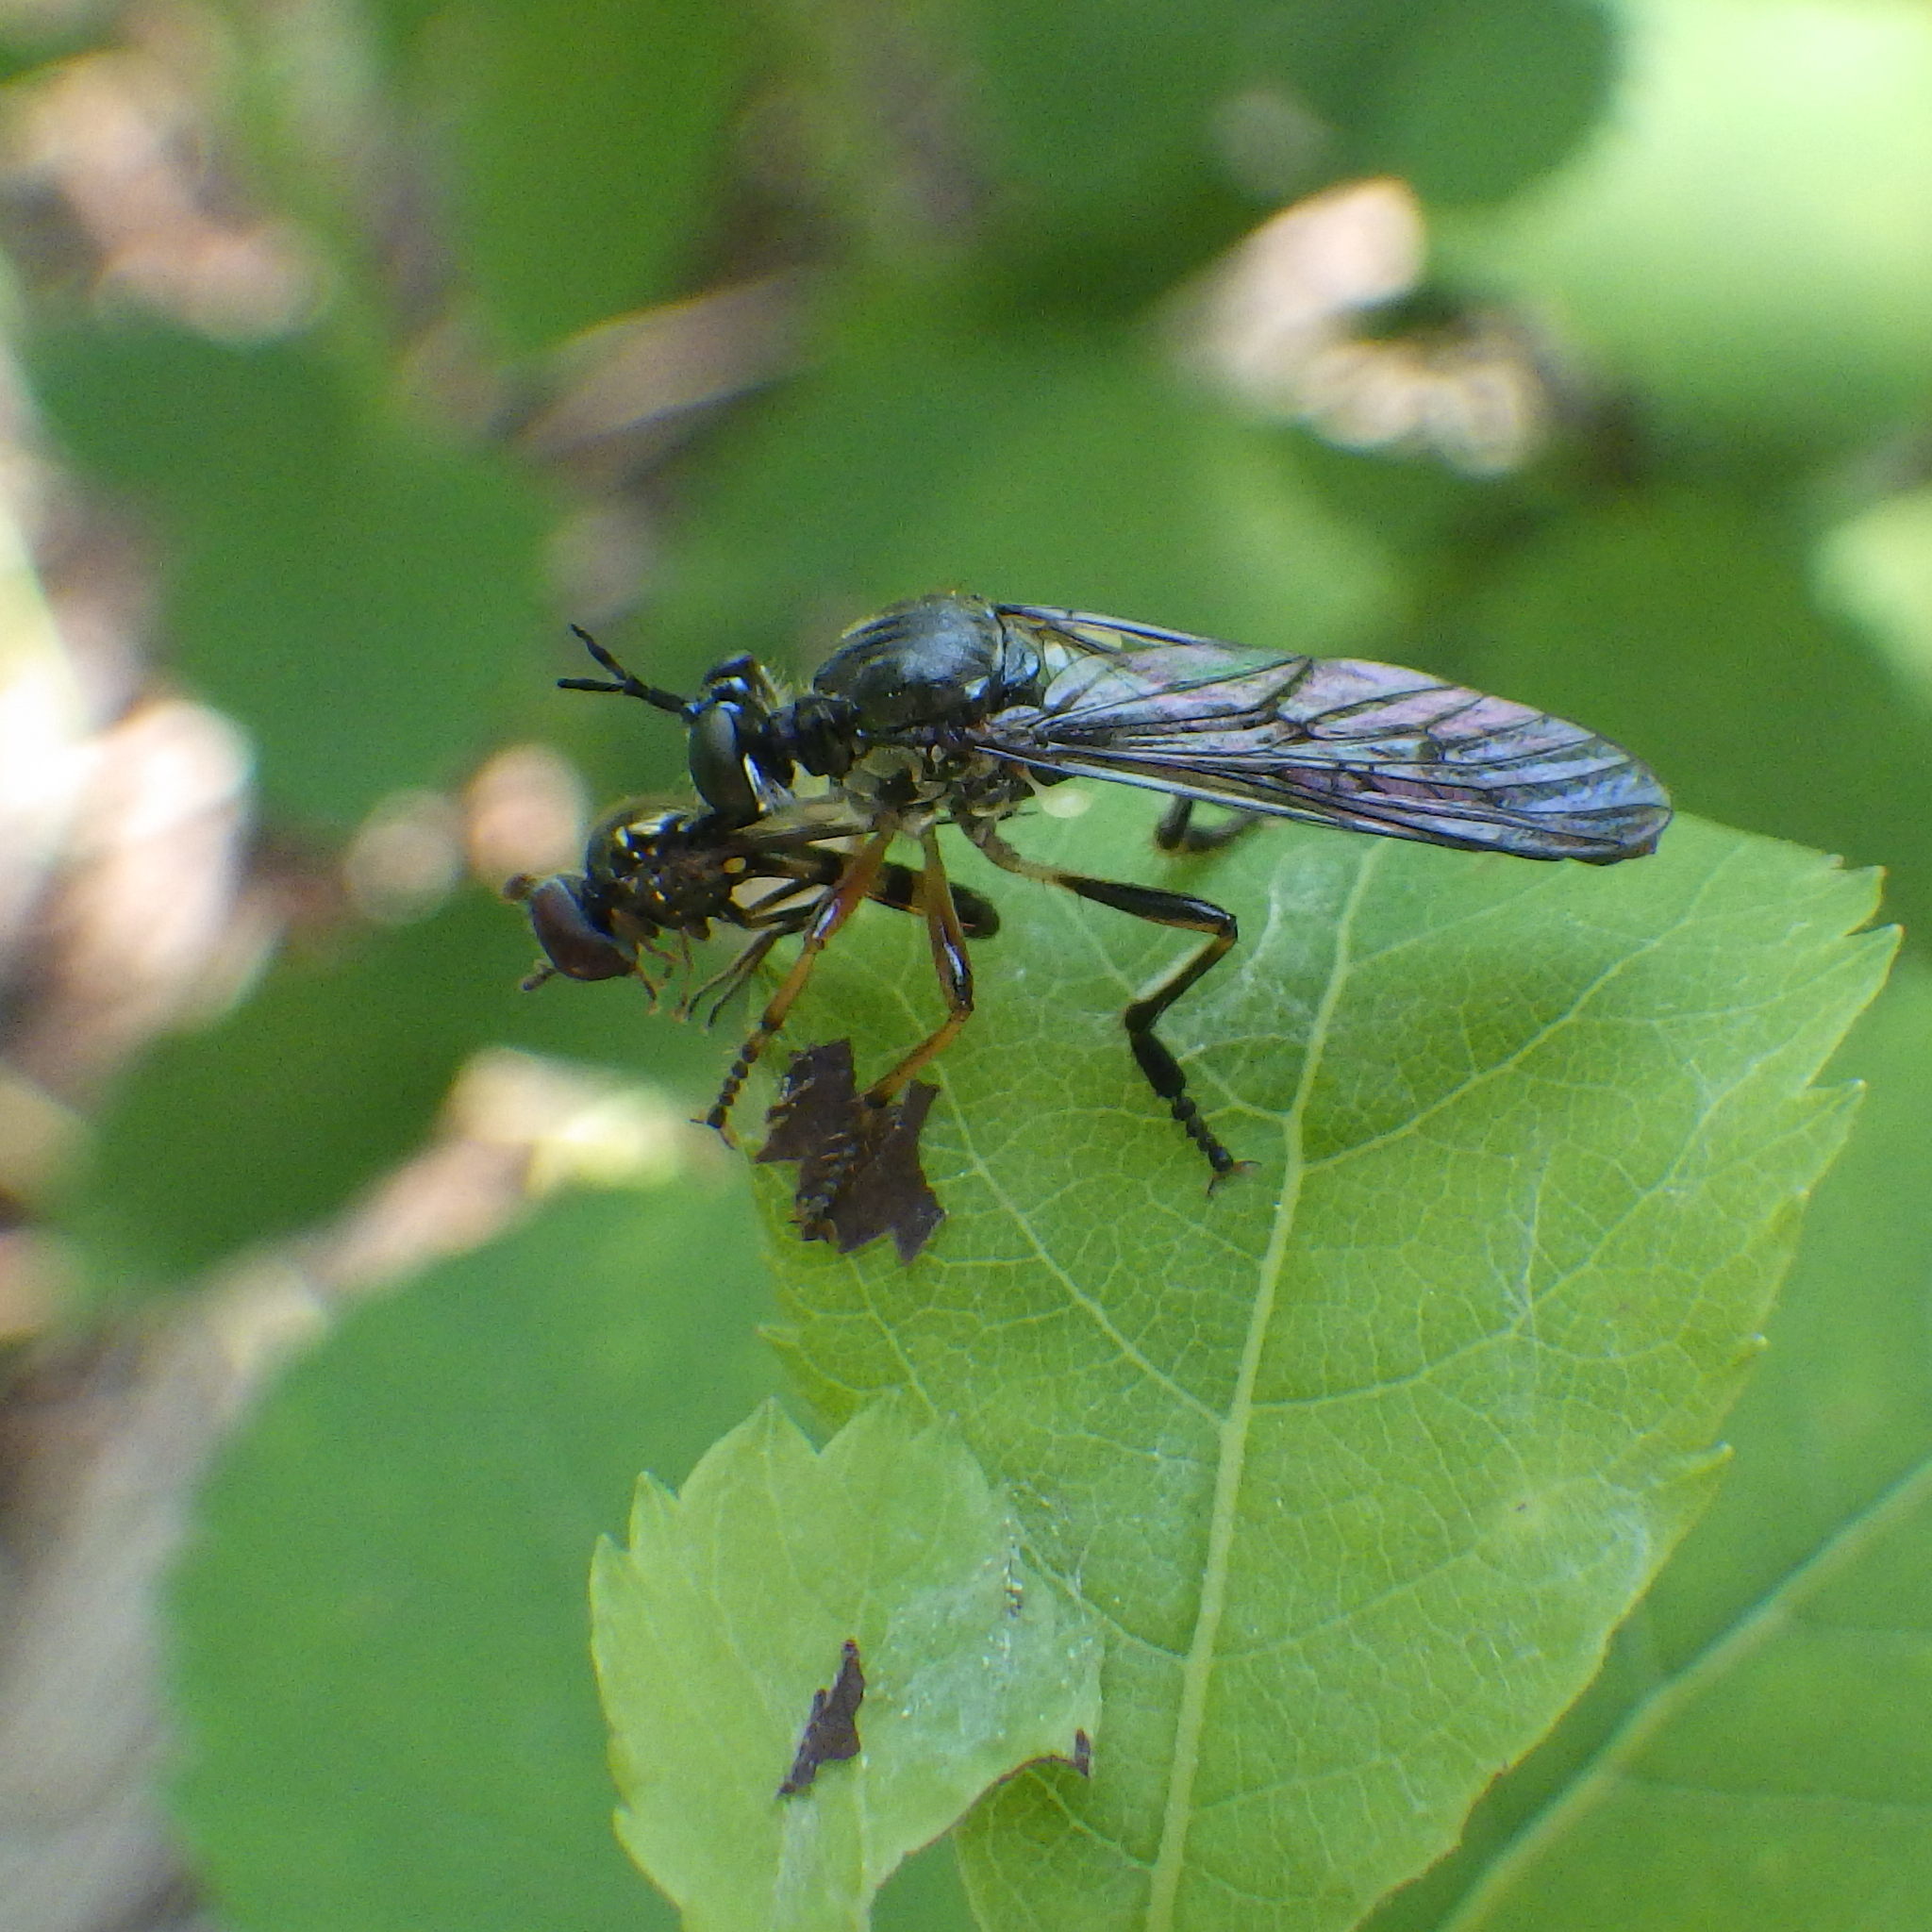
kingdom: Animalia
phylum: Arthropoda
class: Insecta
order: Diptera
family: Syrphidae
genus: Melanostoma
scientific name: Melanostoma mellina
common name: Hover fly
